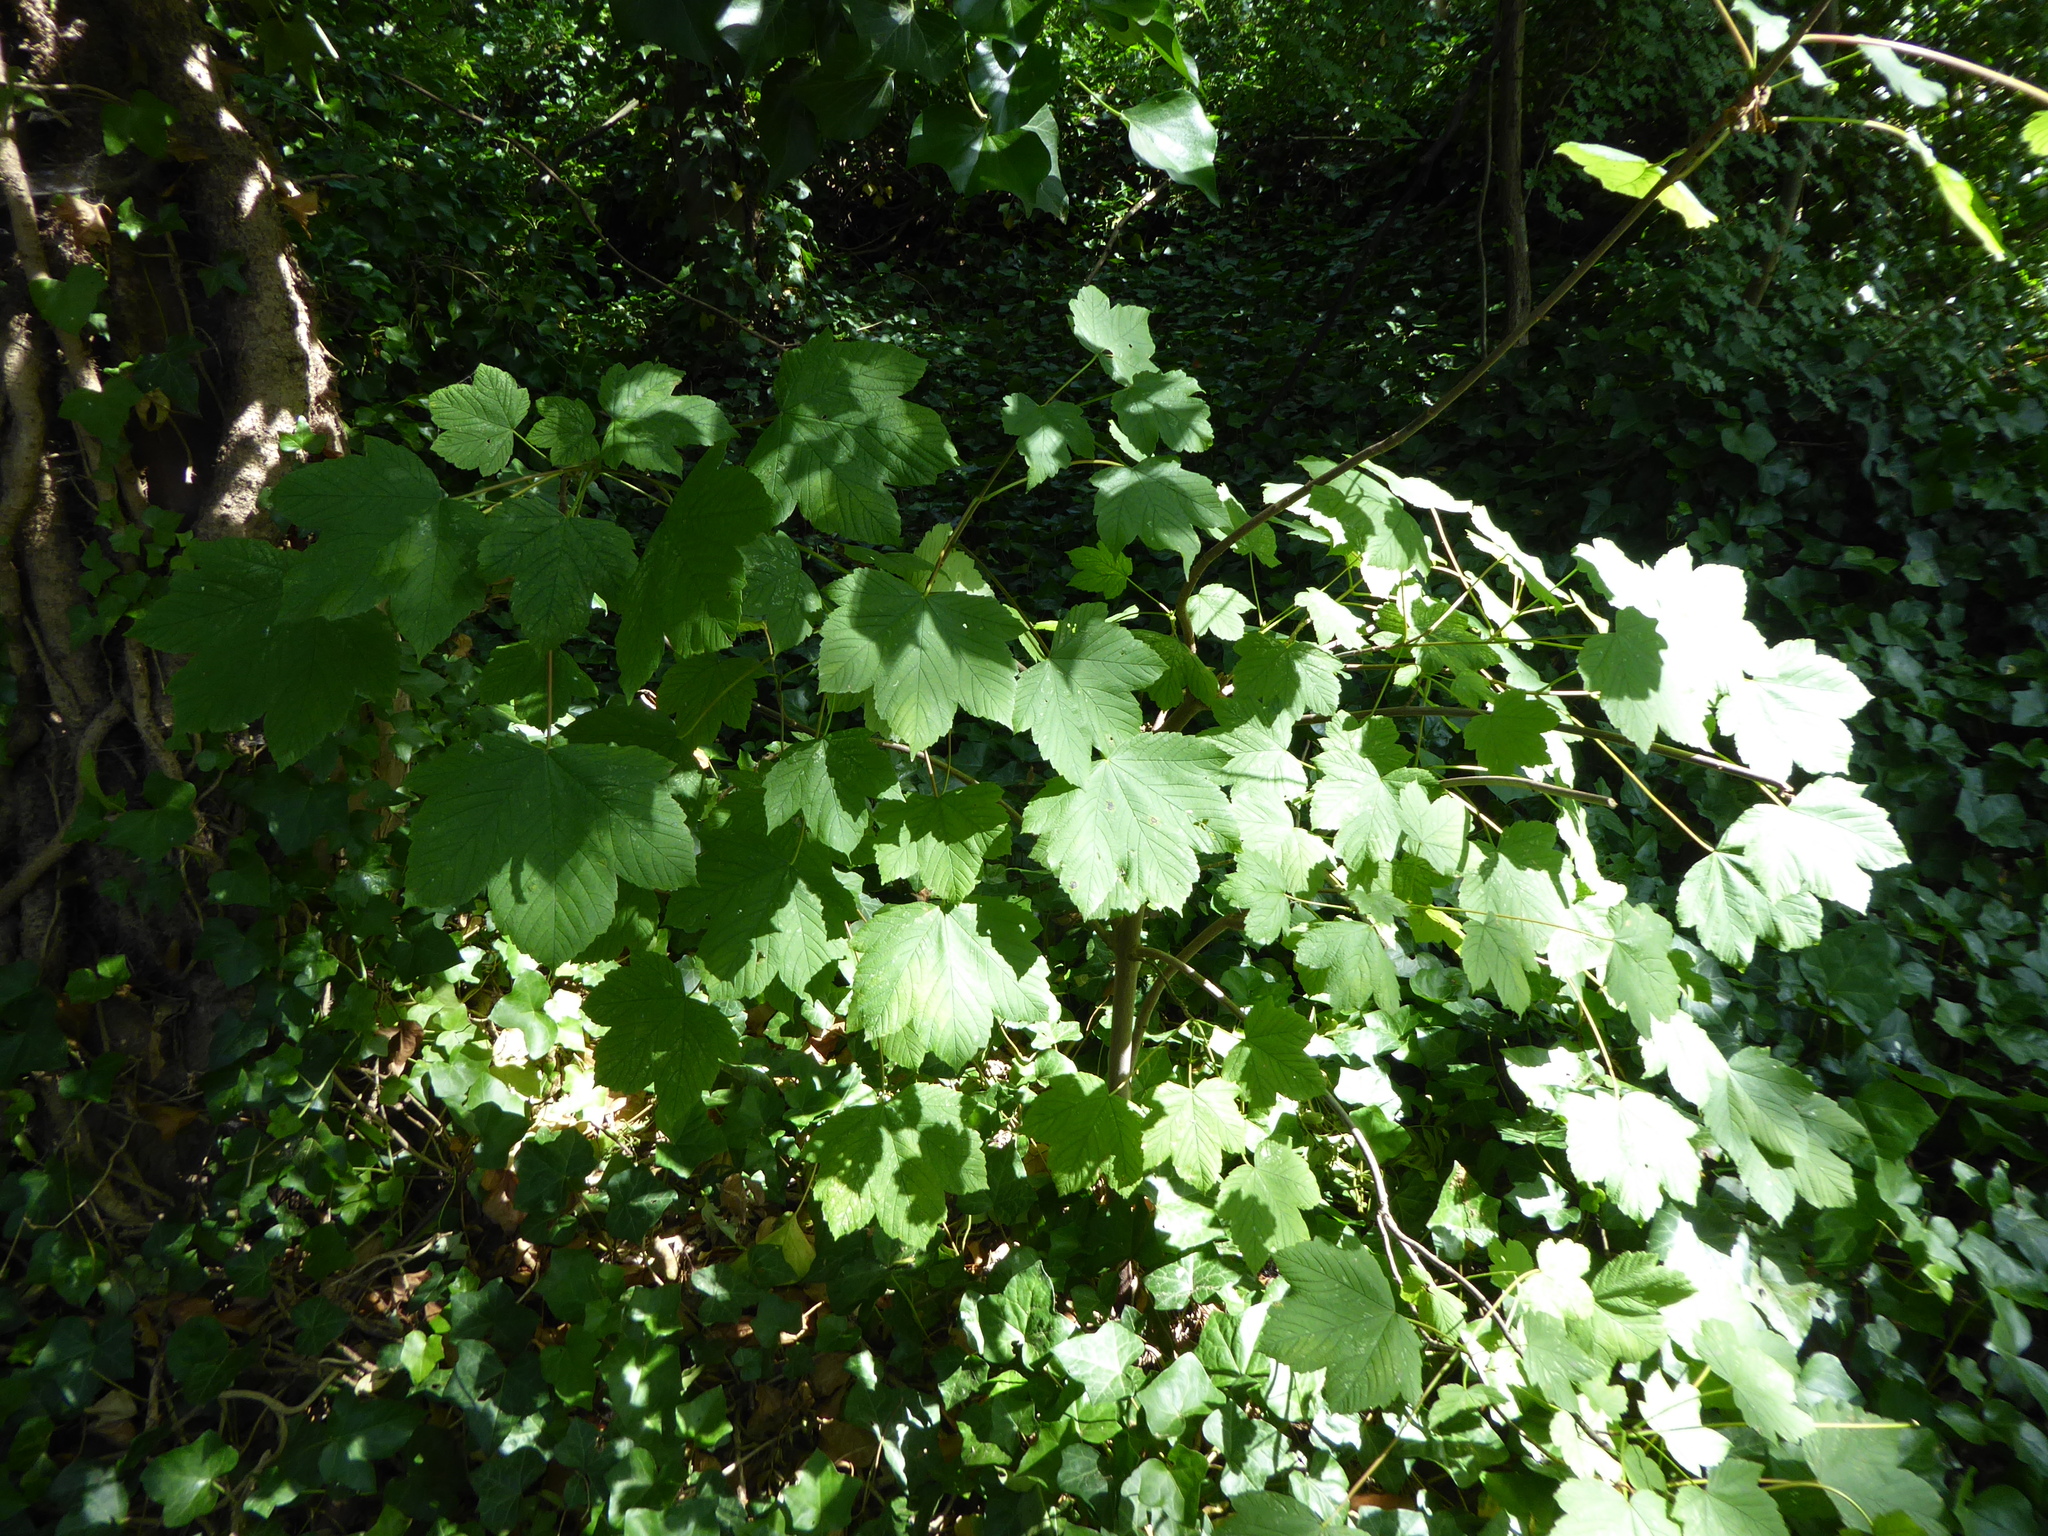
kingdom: Plantae
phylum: Tracheophyta
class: Magnoliopsida
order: Sapindales
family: Sapindaceae
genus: Acer
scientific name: Acer pseudoplatanus
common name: Sycamore
